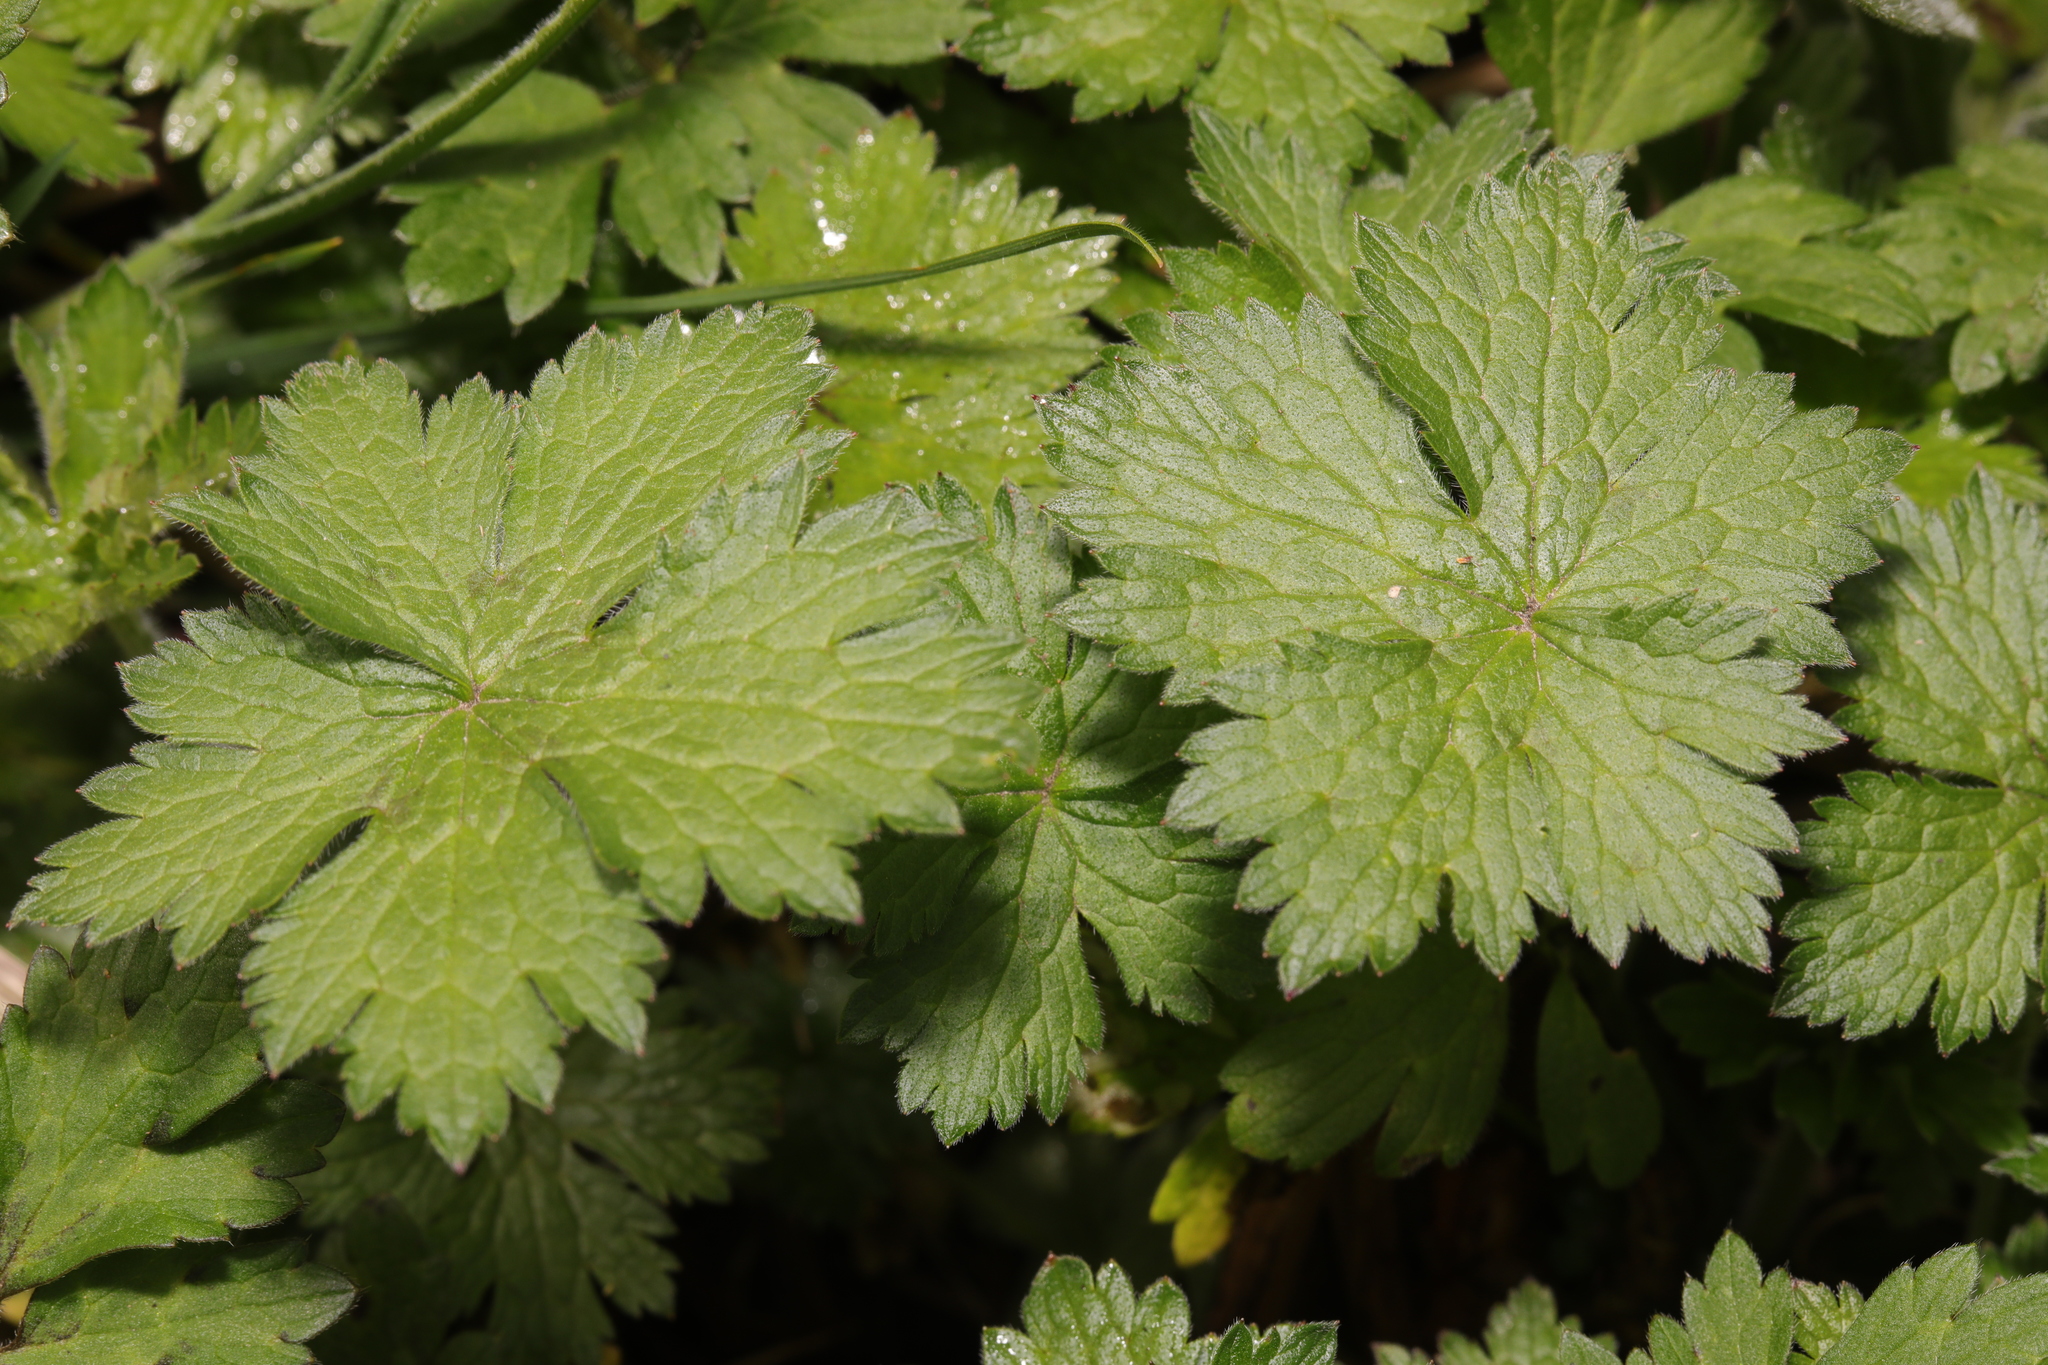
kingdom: Plantae
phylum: Tracheophyta
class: Magnoliopsida
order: Geraniales
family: Geraniaceae
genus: Geranium
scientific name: Geranium oxonianum
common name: Druce's crane's-bill
